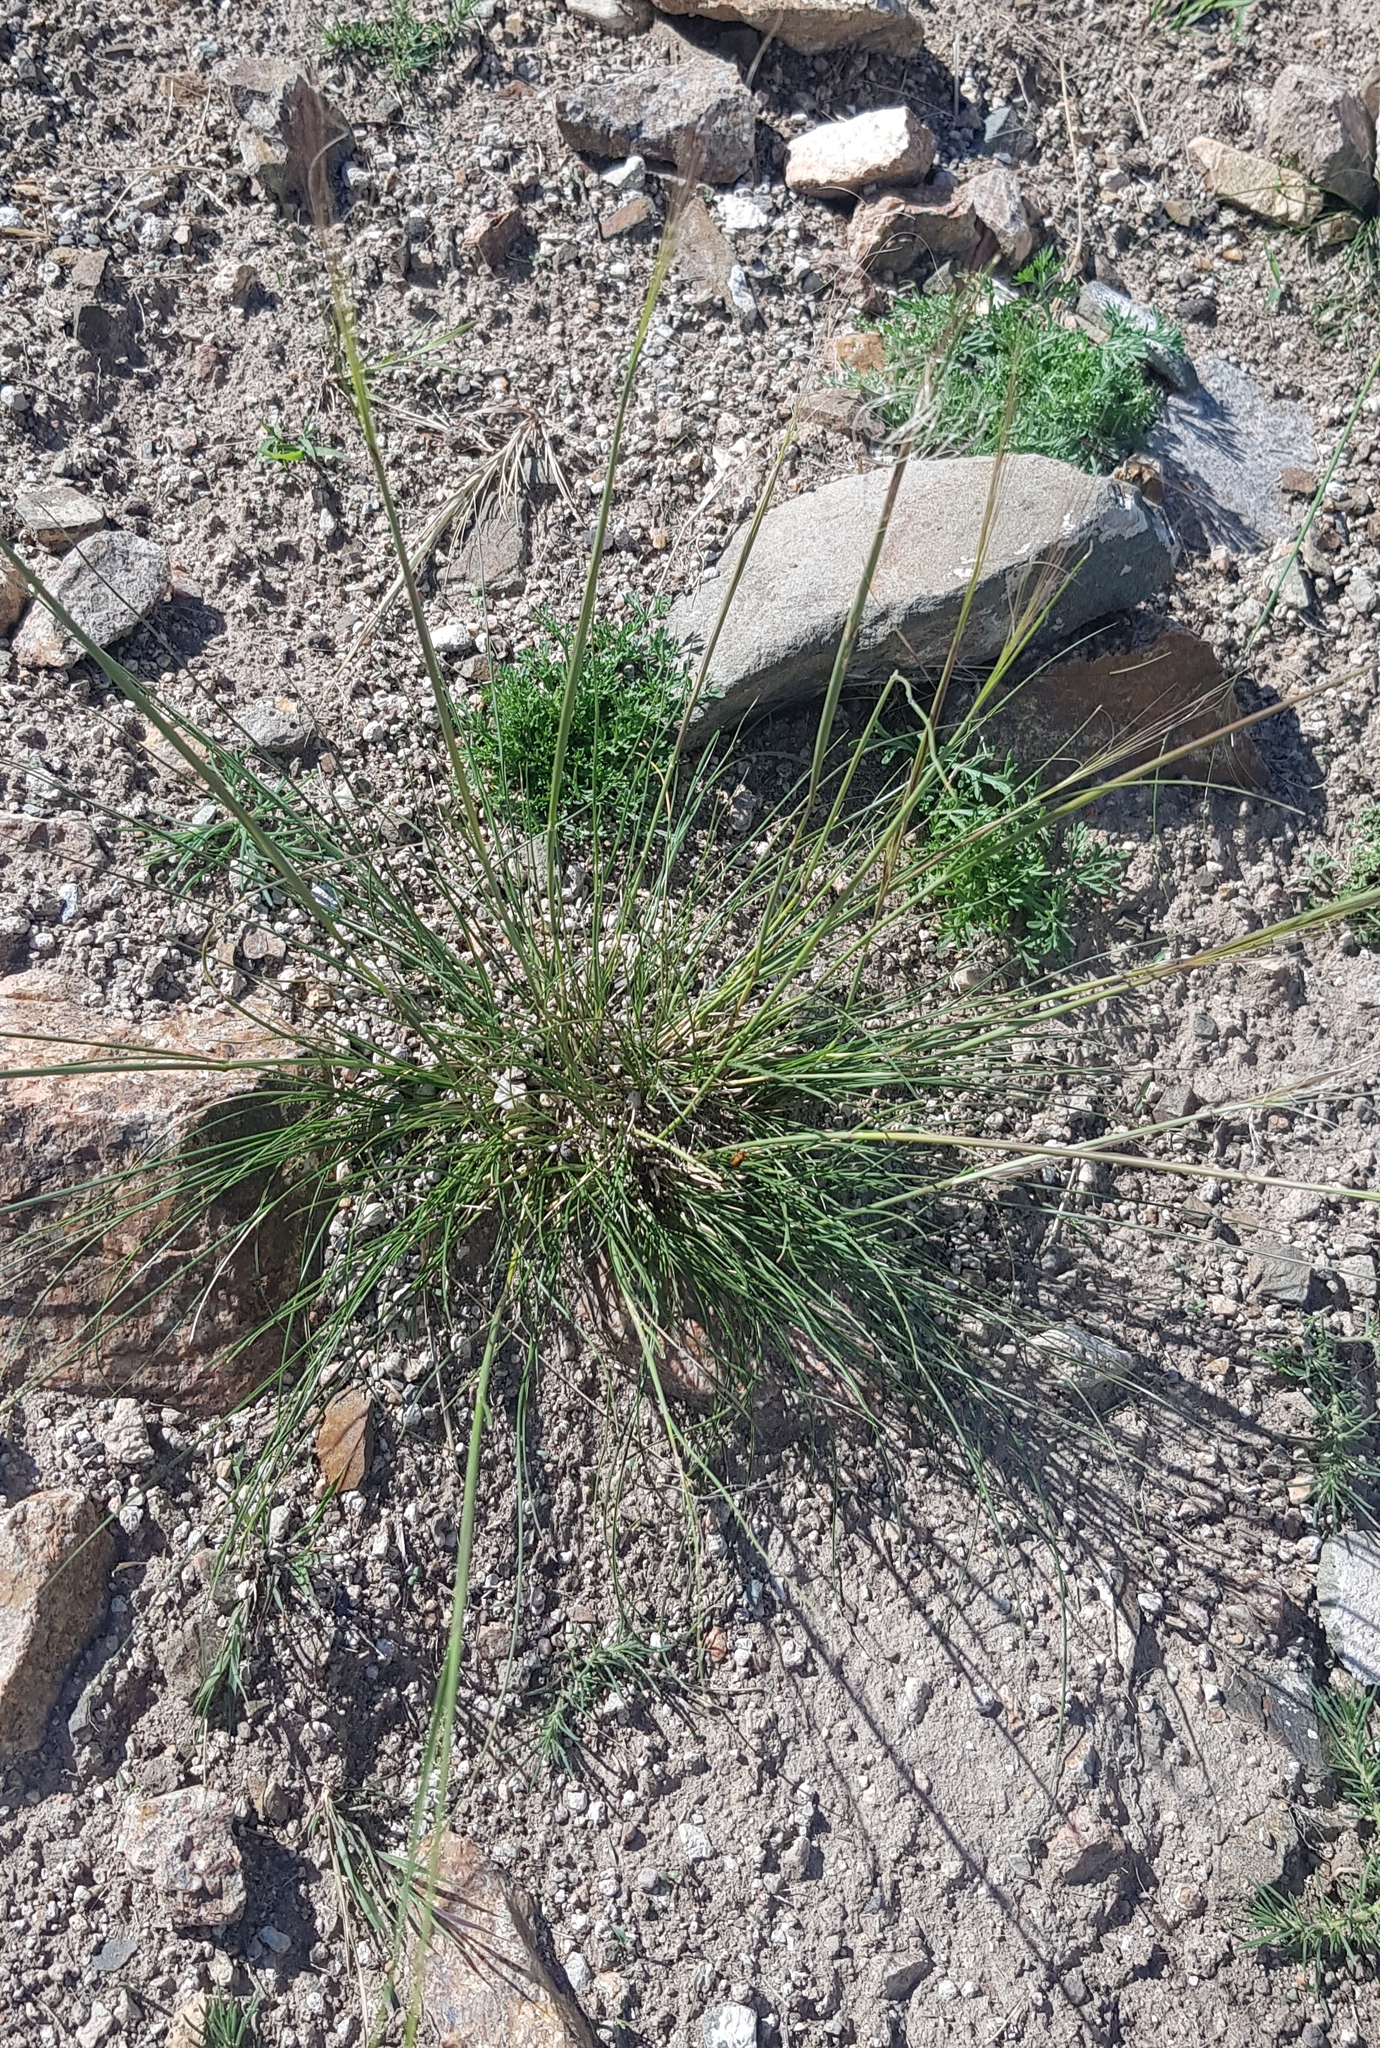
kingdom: Plantae
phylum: Tracheophyta
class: Liliopsida
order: Poales
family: Poaceae
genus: Stipa
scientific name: Stipa krylovii
